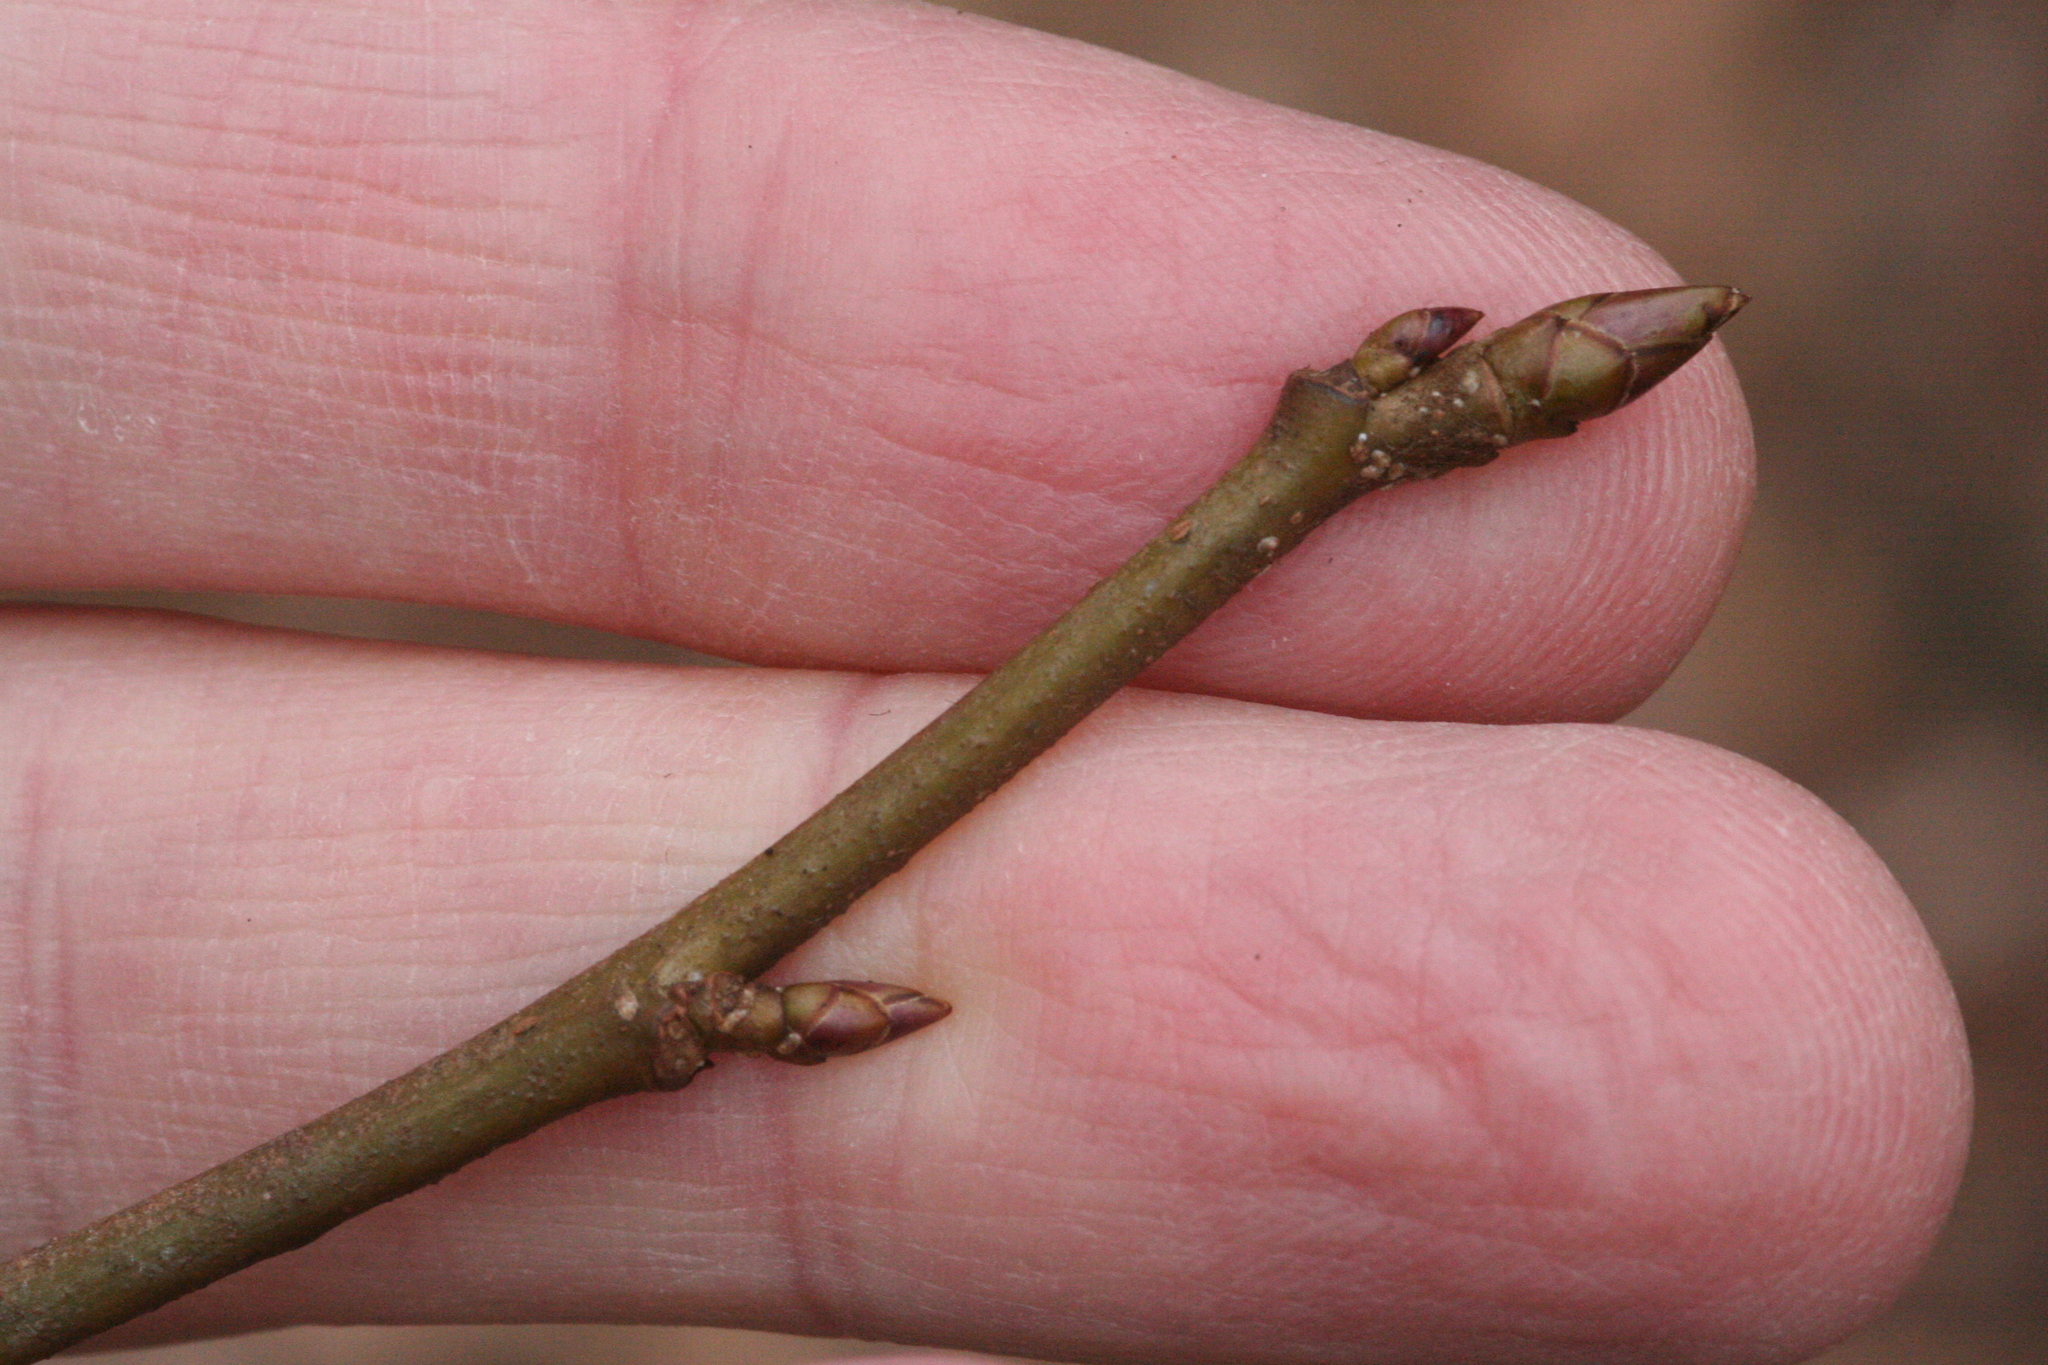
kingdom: Plantae
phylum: Tracheophyta
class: Magnoliopsida
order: Saxifragales
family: Altingiaceae
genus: Liquidambar
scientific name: Liquidambar styraciflua
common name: Sweet gum
